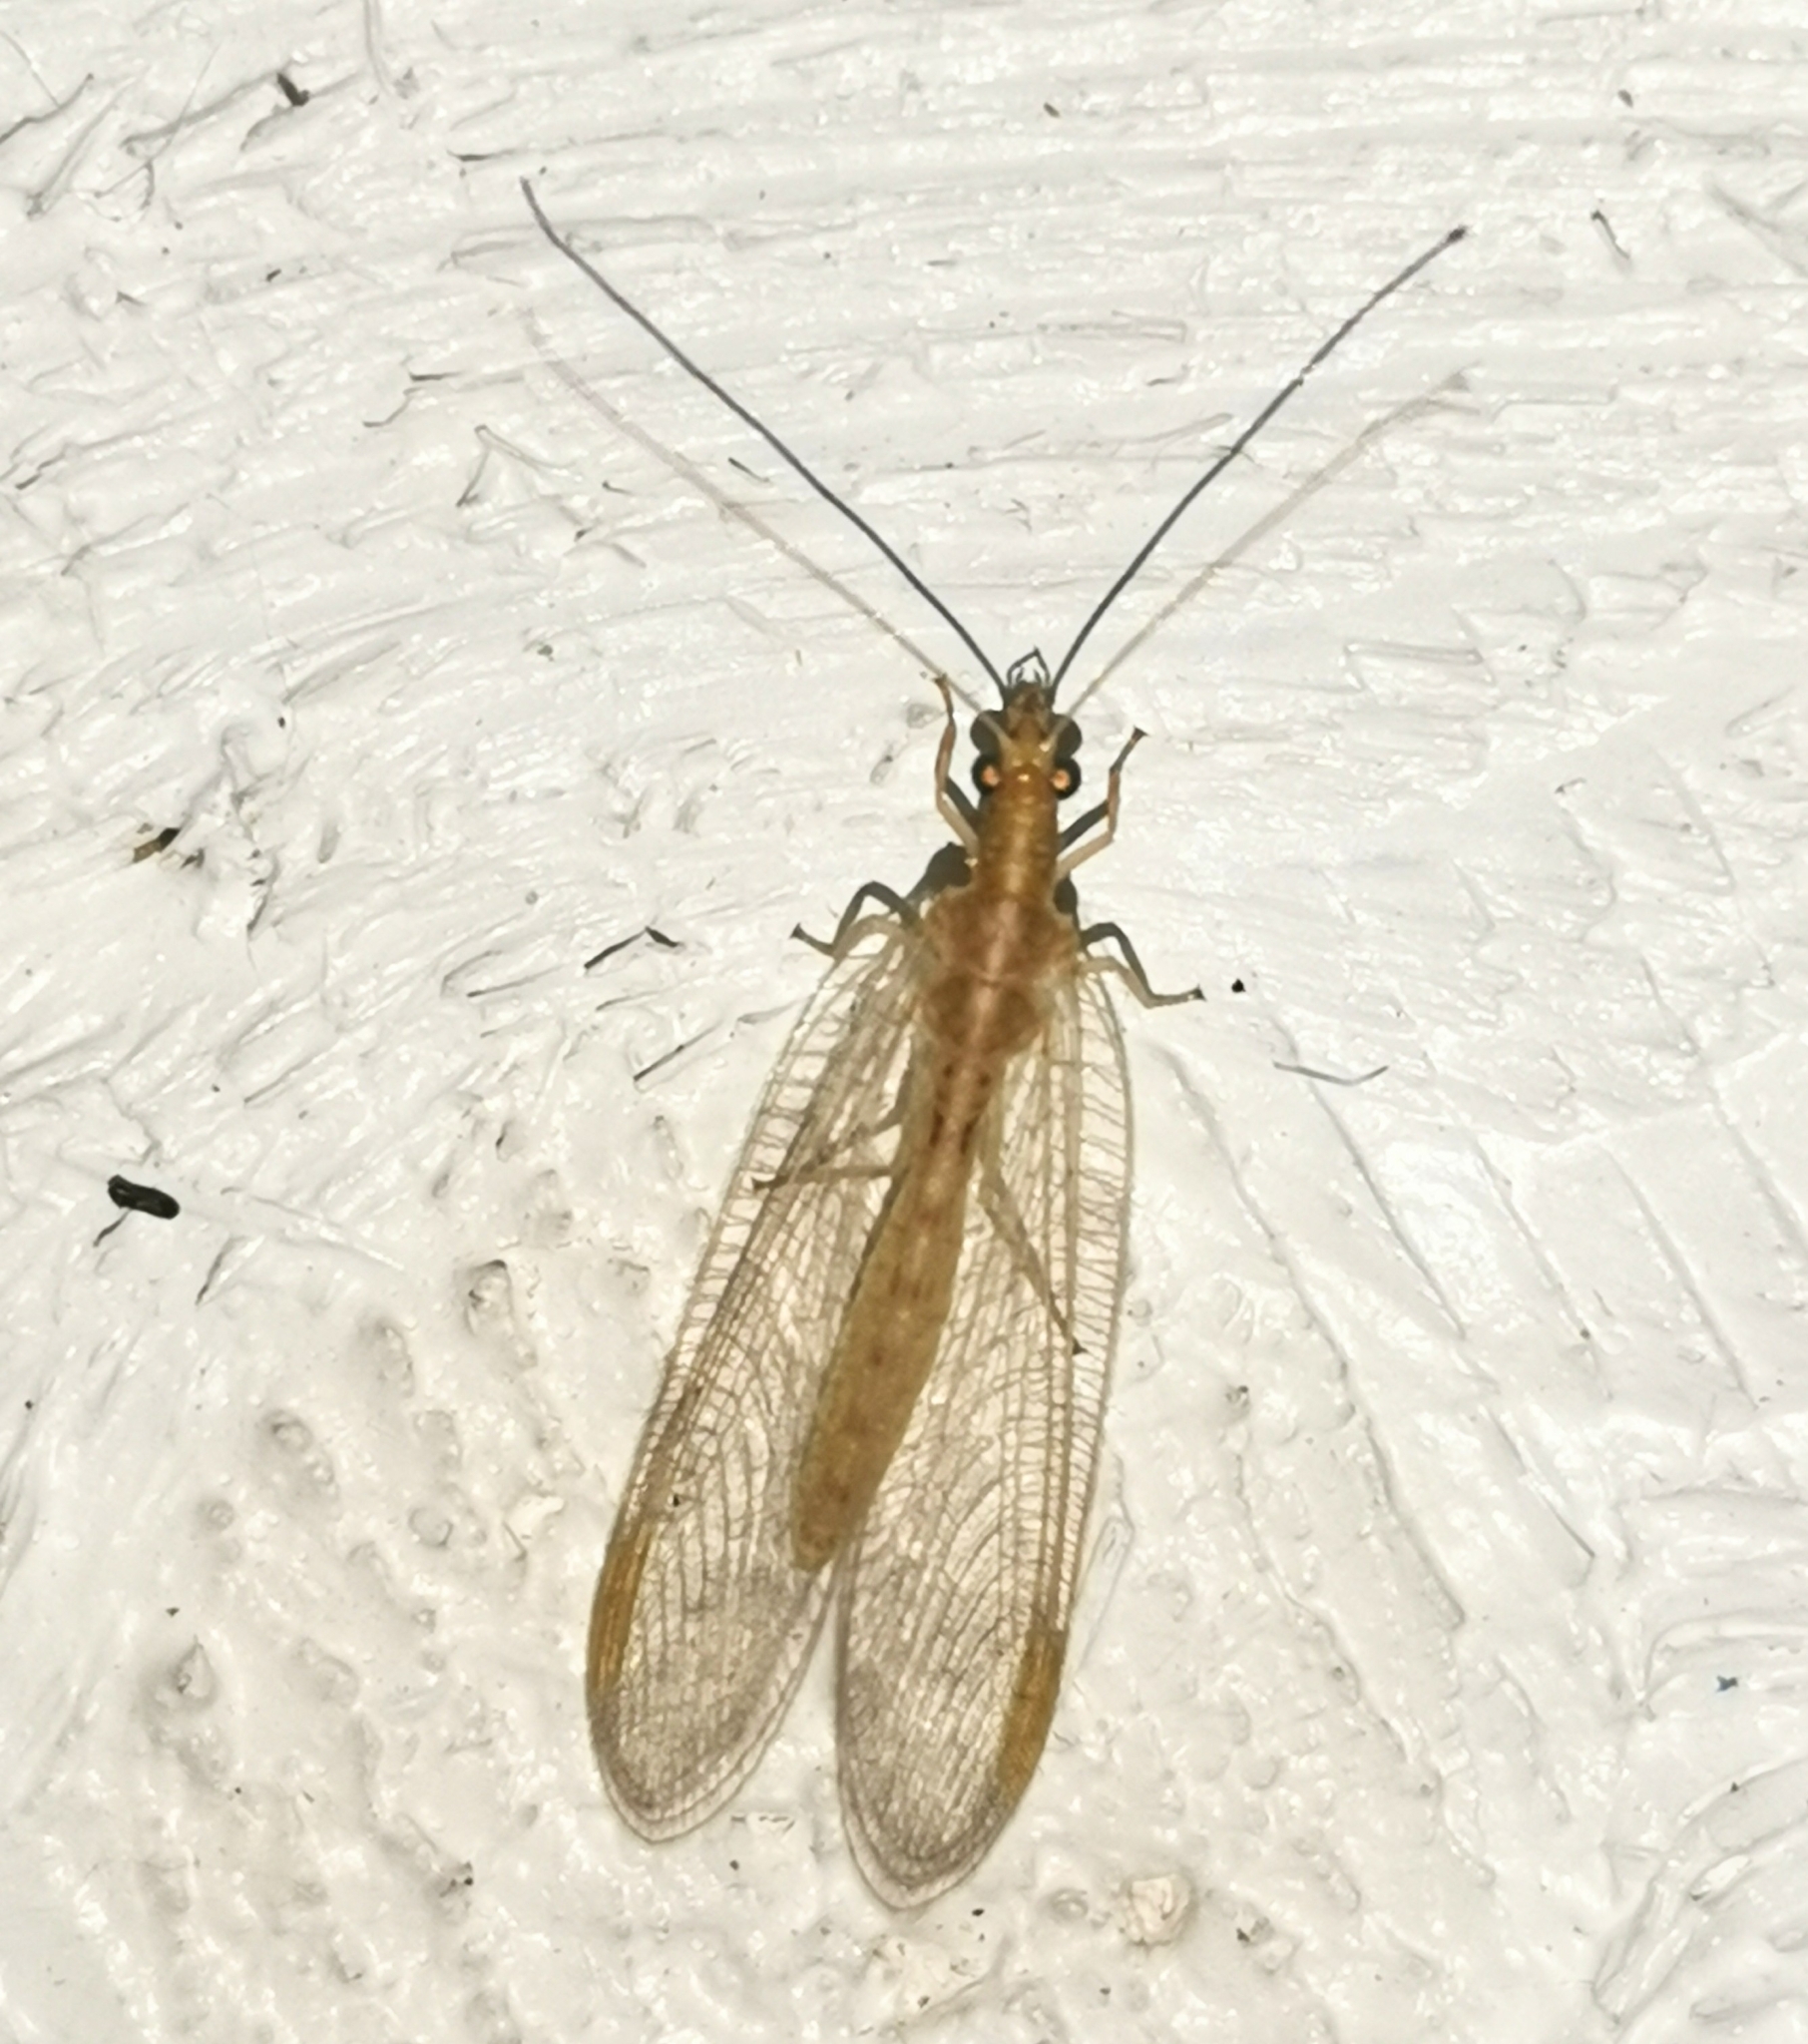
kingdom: Animalia
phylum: Arthropoda
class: Insecta
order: Neuroptera
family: Chrysopidae
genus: Chrysoperla
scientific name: Chrysoperla
